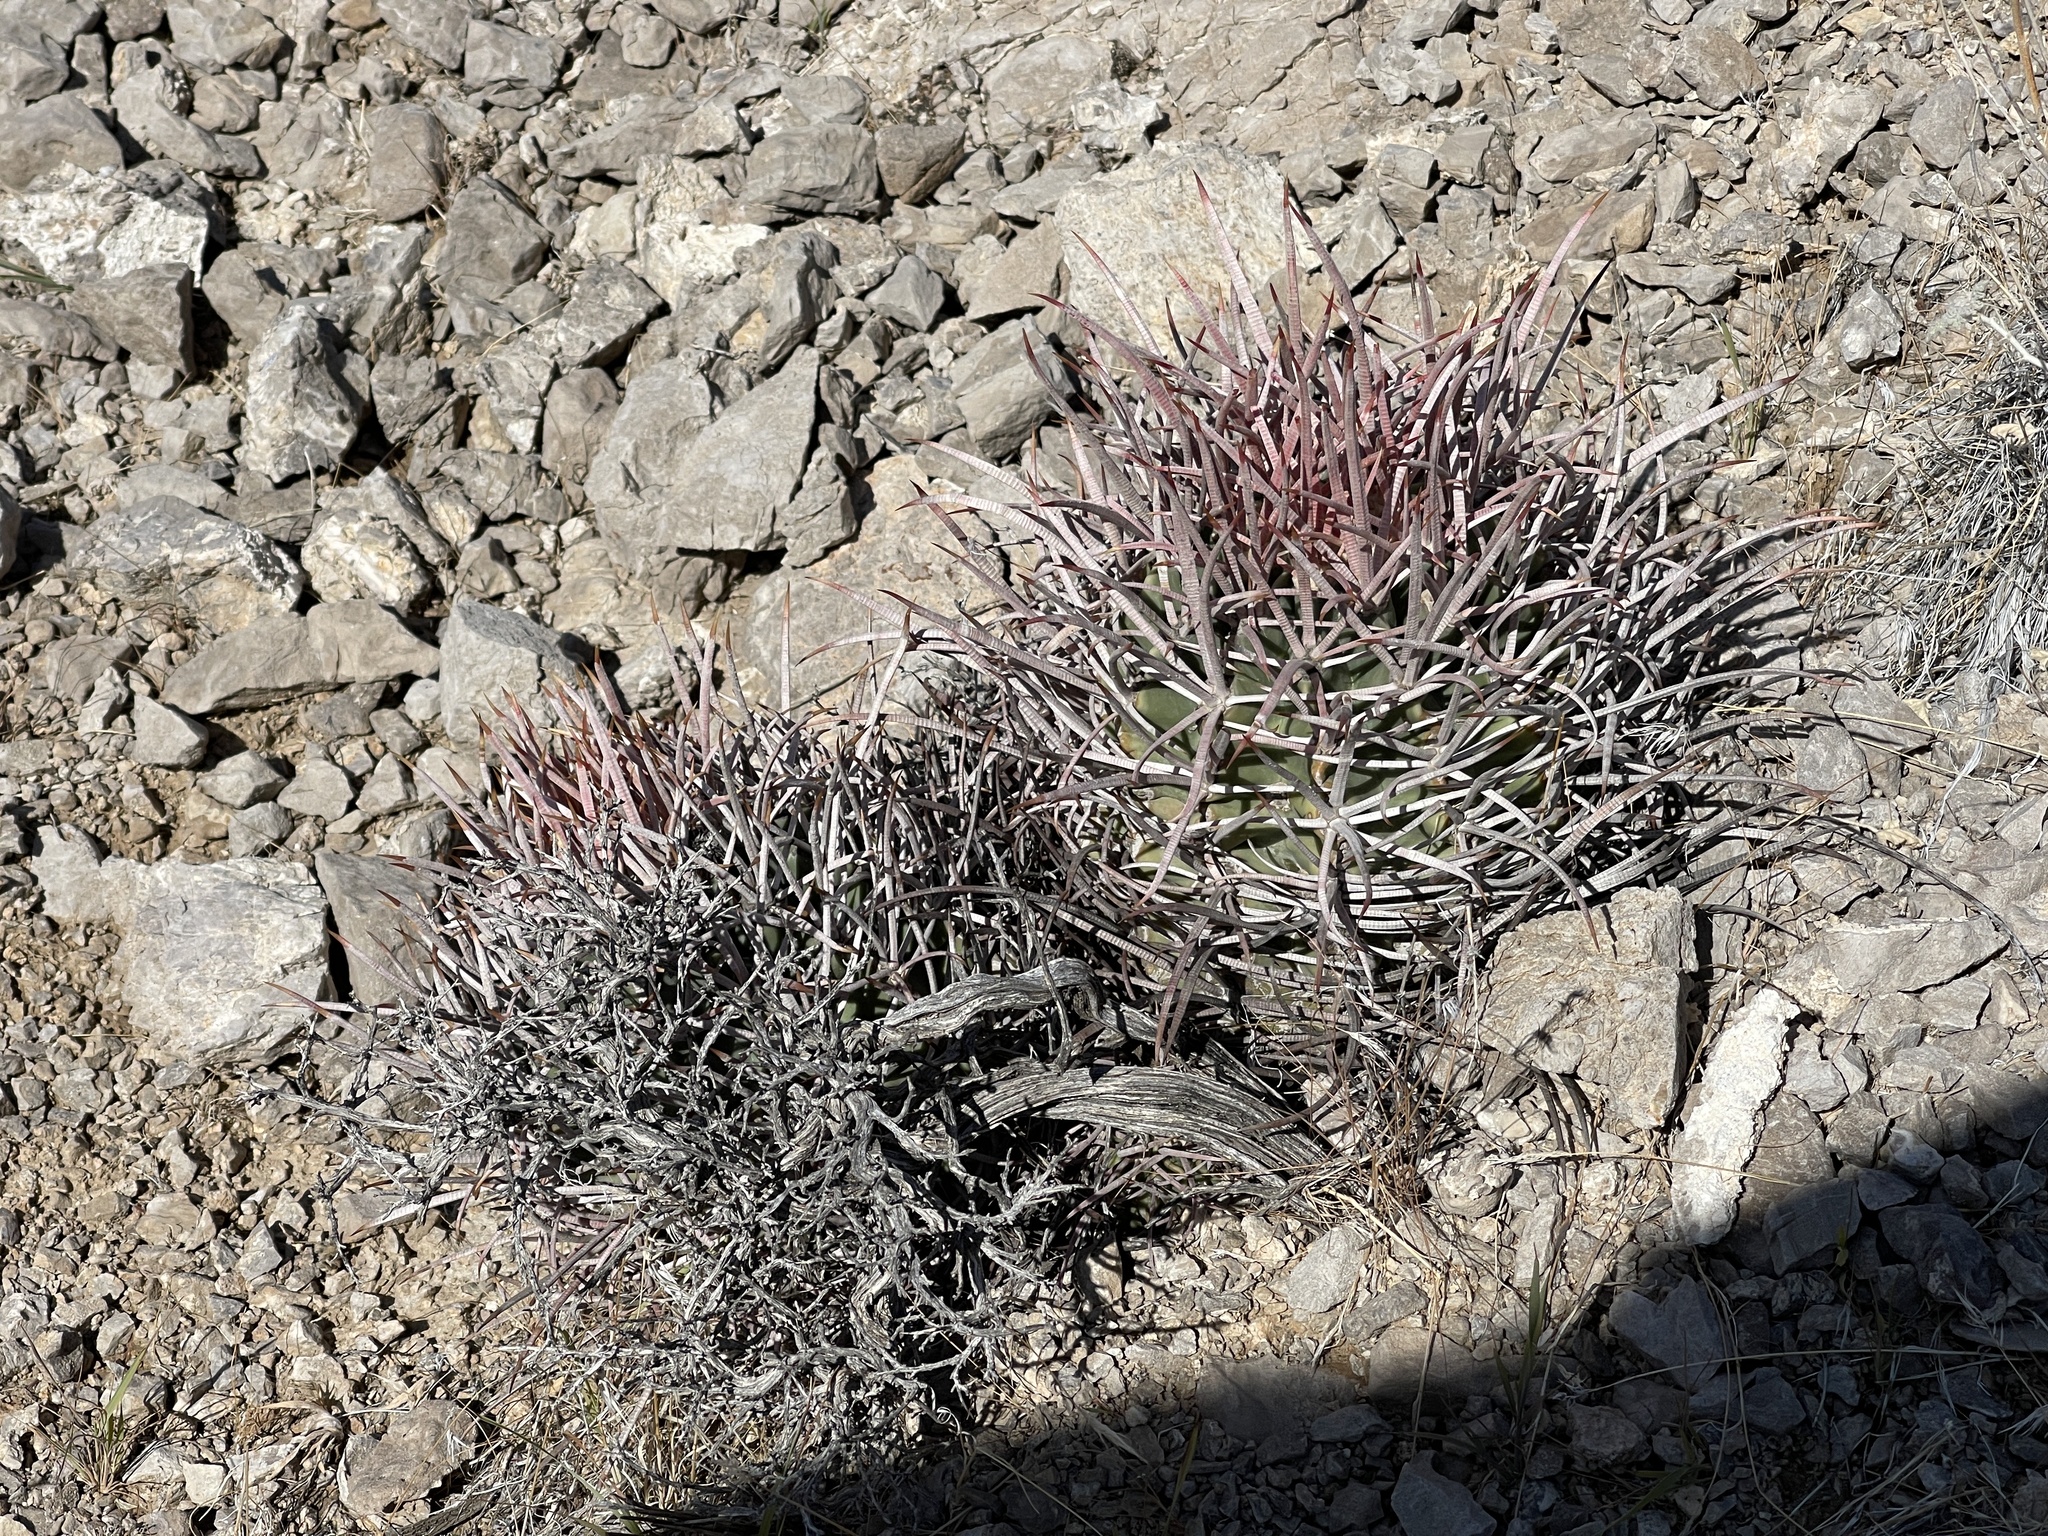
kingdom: Plantae
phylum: Tracheophyta
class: Magnoliopsida
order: Caryophyllales
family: Cactaceae
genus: Echinocactus
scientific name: Echinocactus polycephalus
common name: Cottontop cactus
